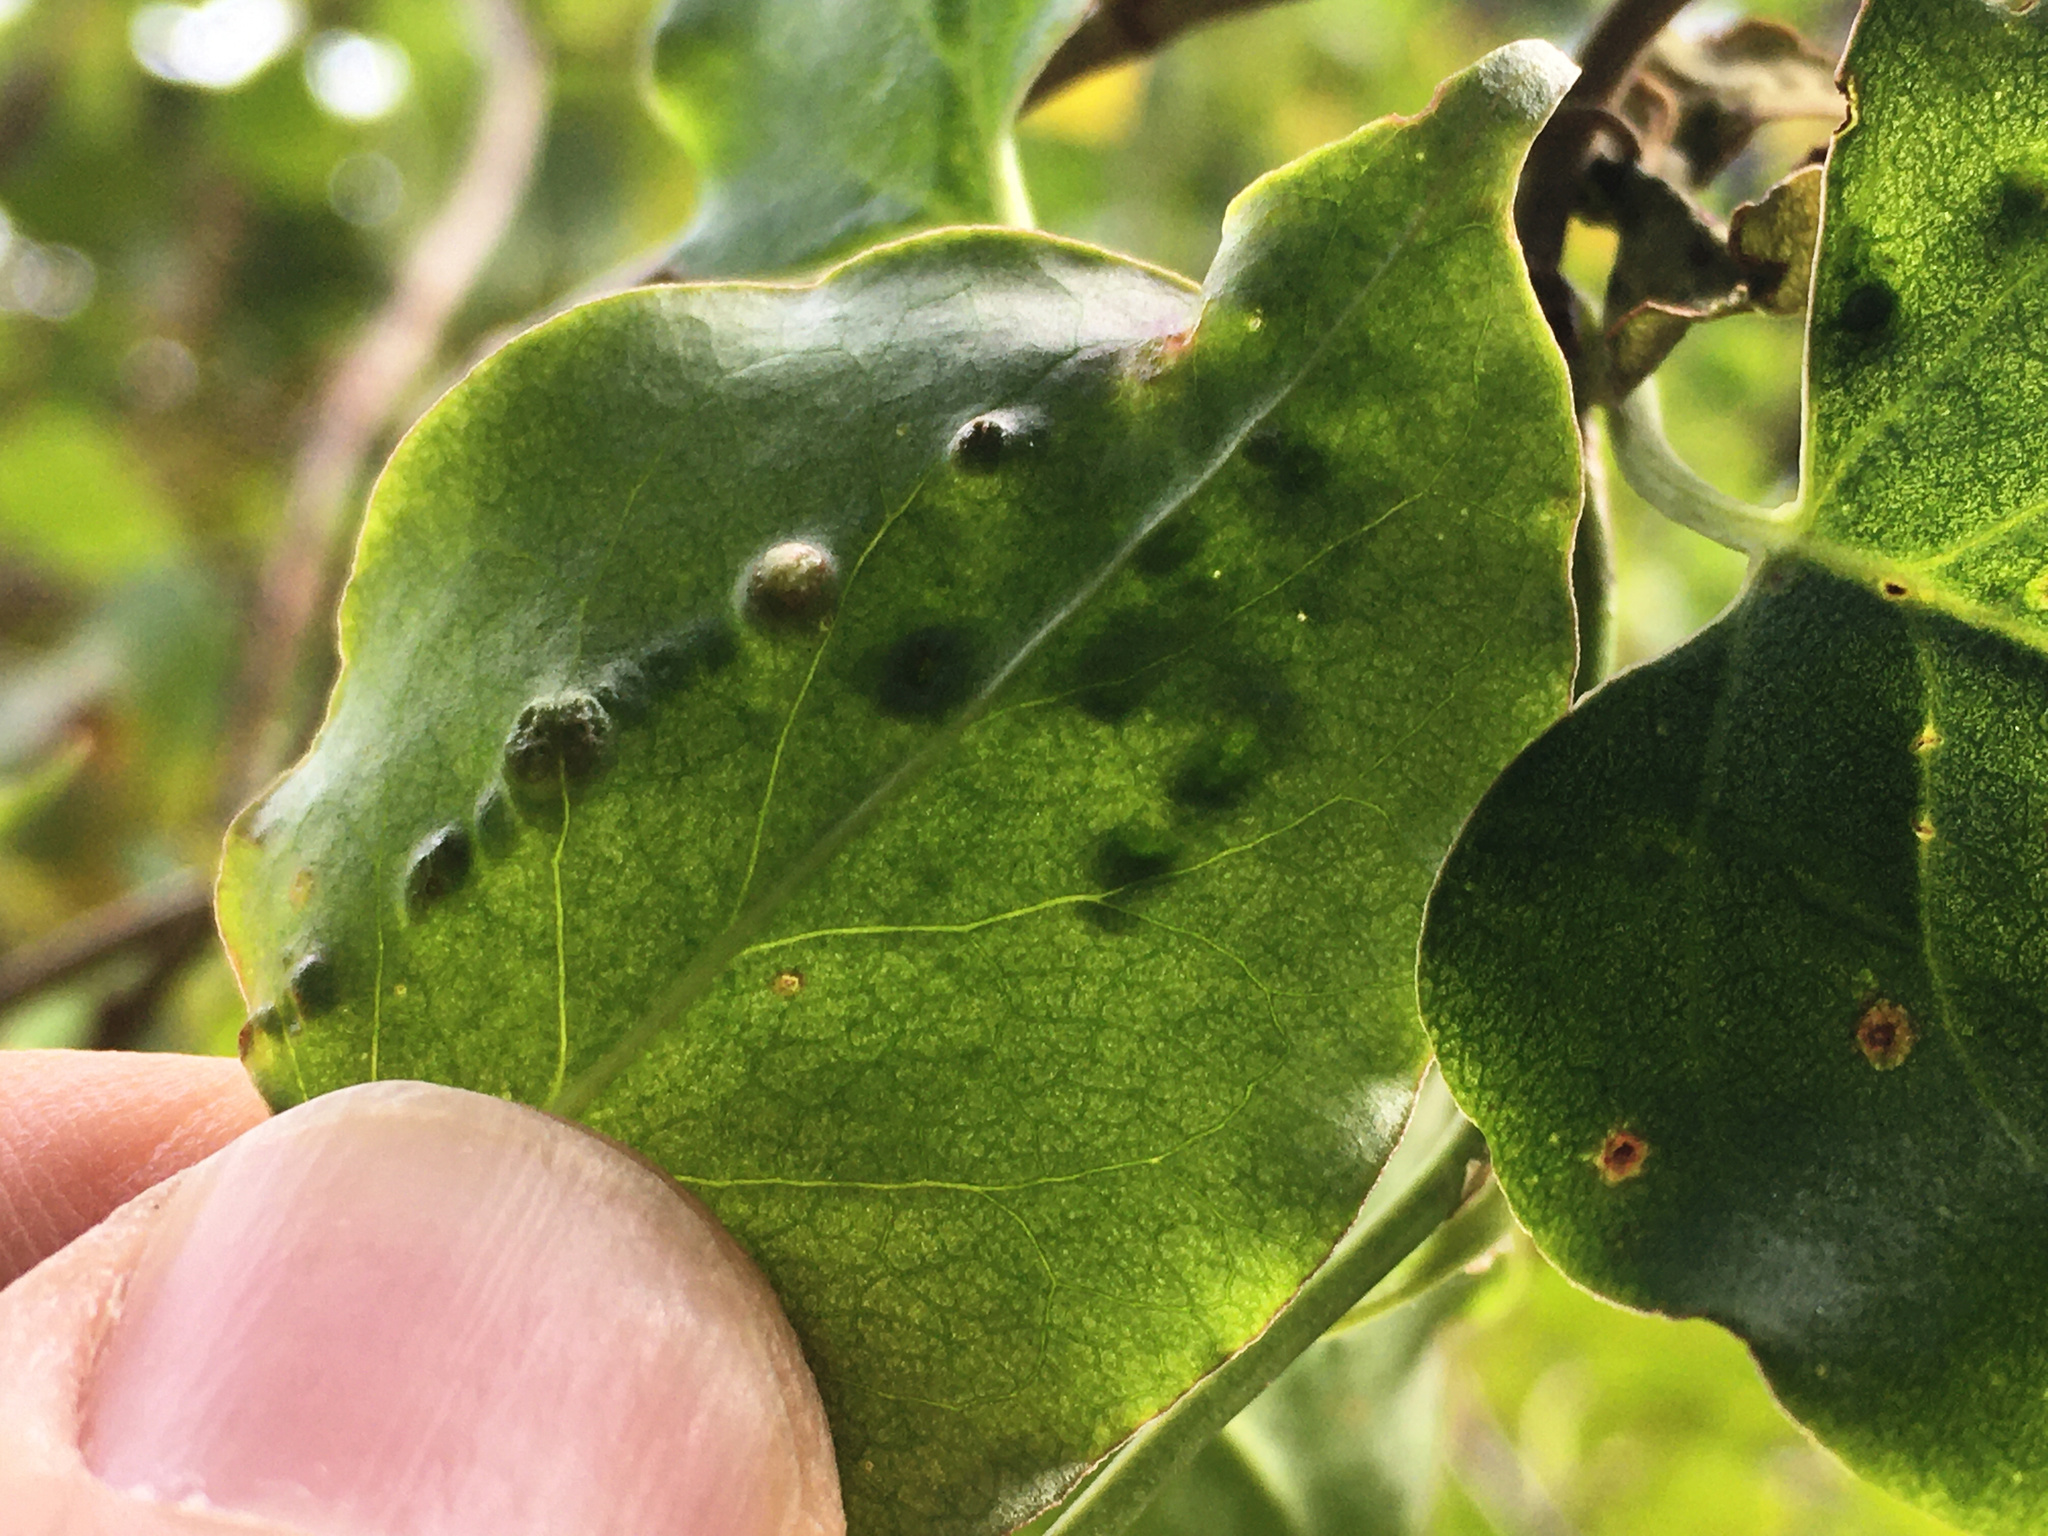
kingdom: Animalia
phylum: Arthropoda
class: Arachnida
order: Trombidiformes
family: Eriophyidae
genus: Aceria
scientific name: Aceria lamii
